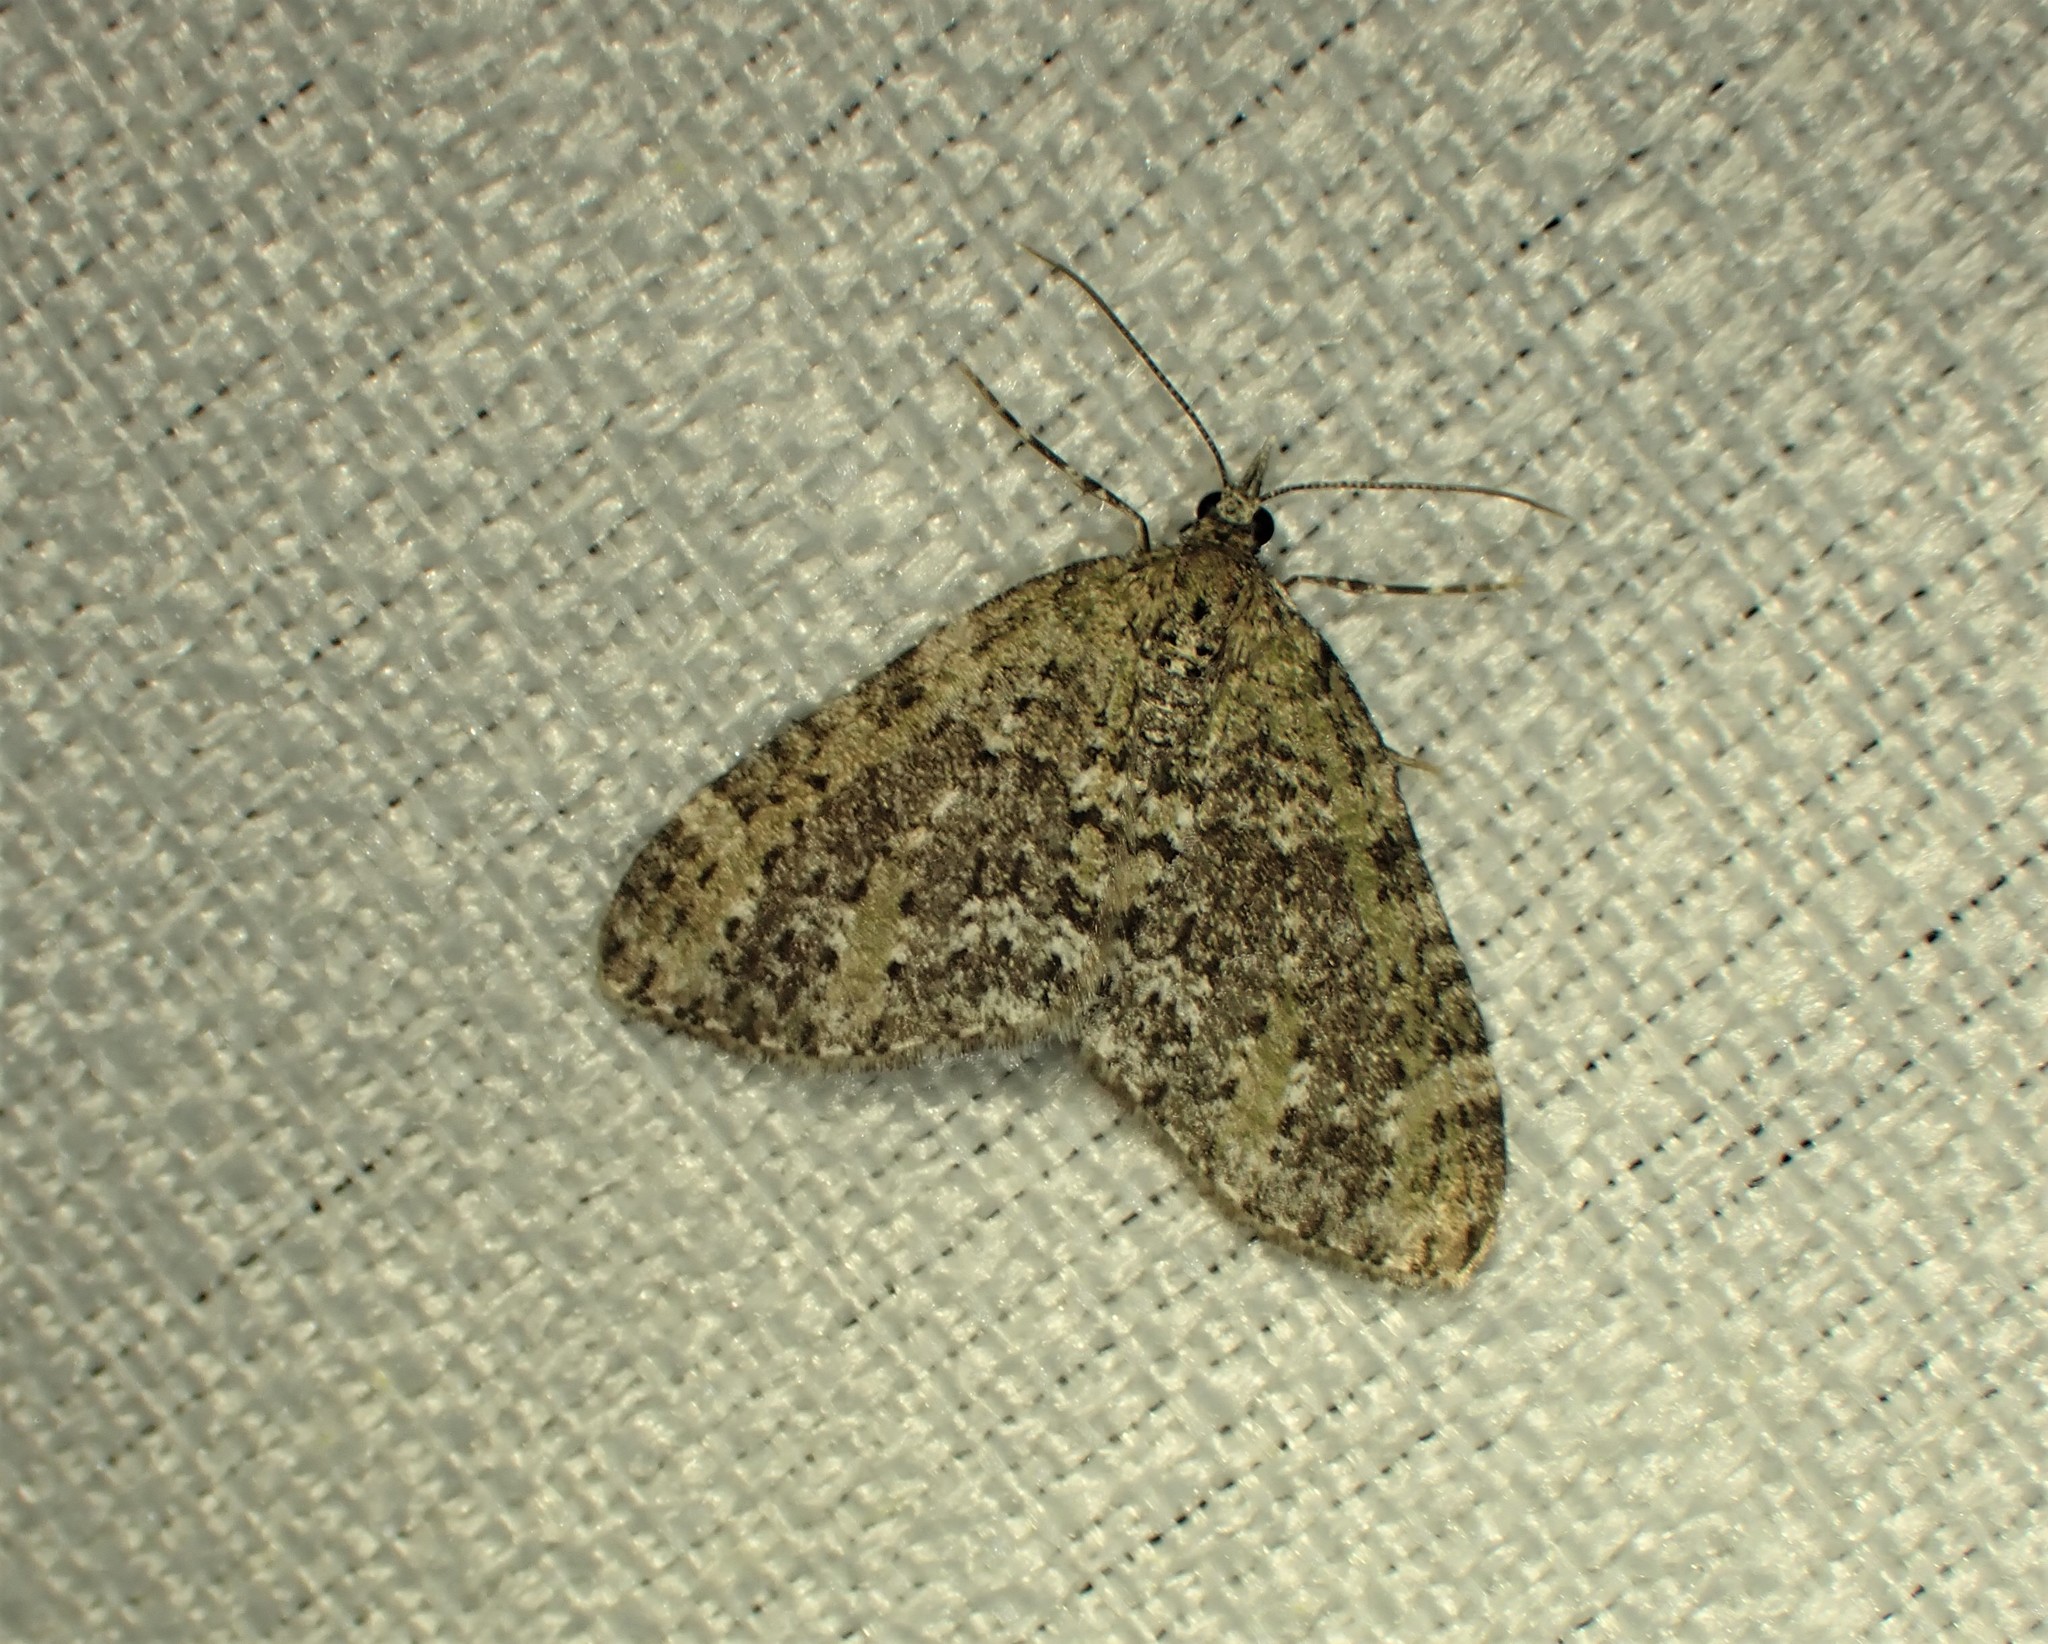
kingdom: Animalia
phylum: Arthropoda
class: Insecta
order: Lepidoptera
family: Geometridae
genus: Acasis
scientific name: Acasis viridata
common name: Olive-and-black carpet moth
